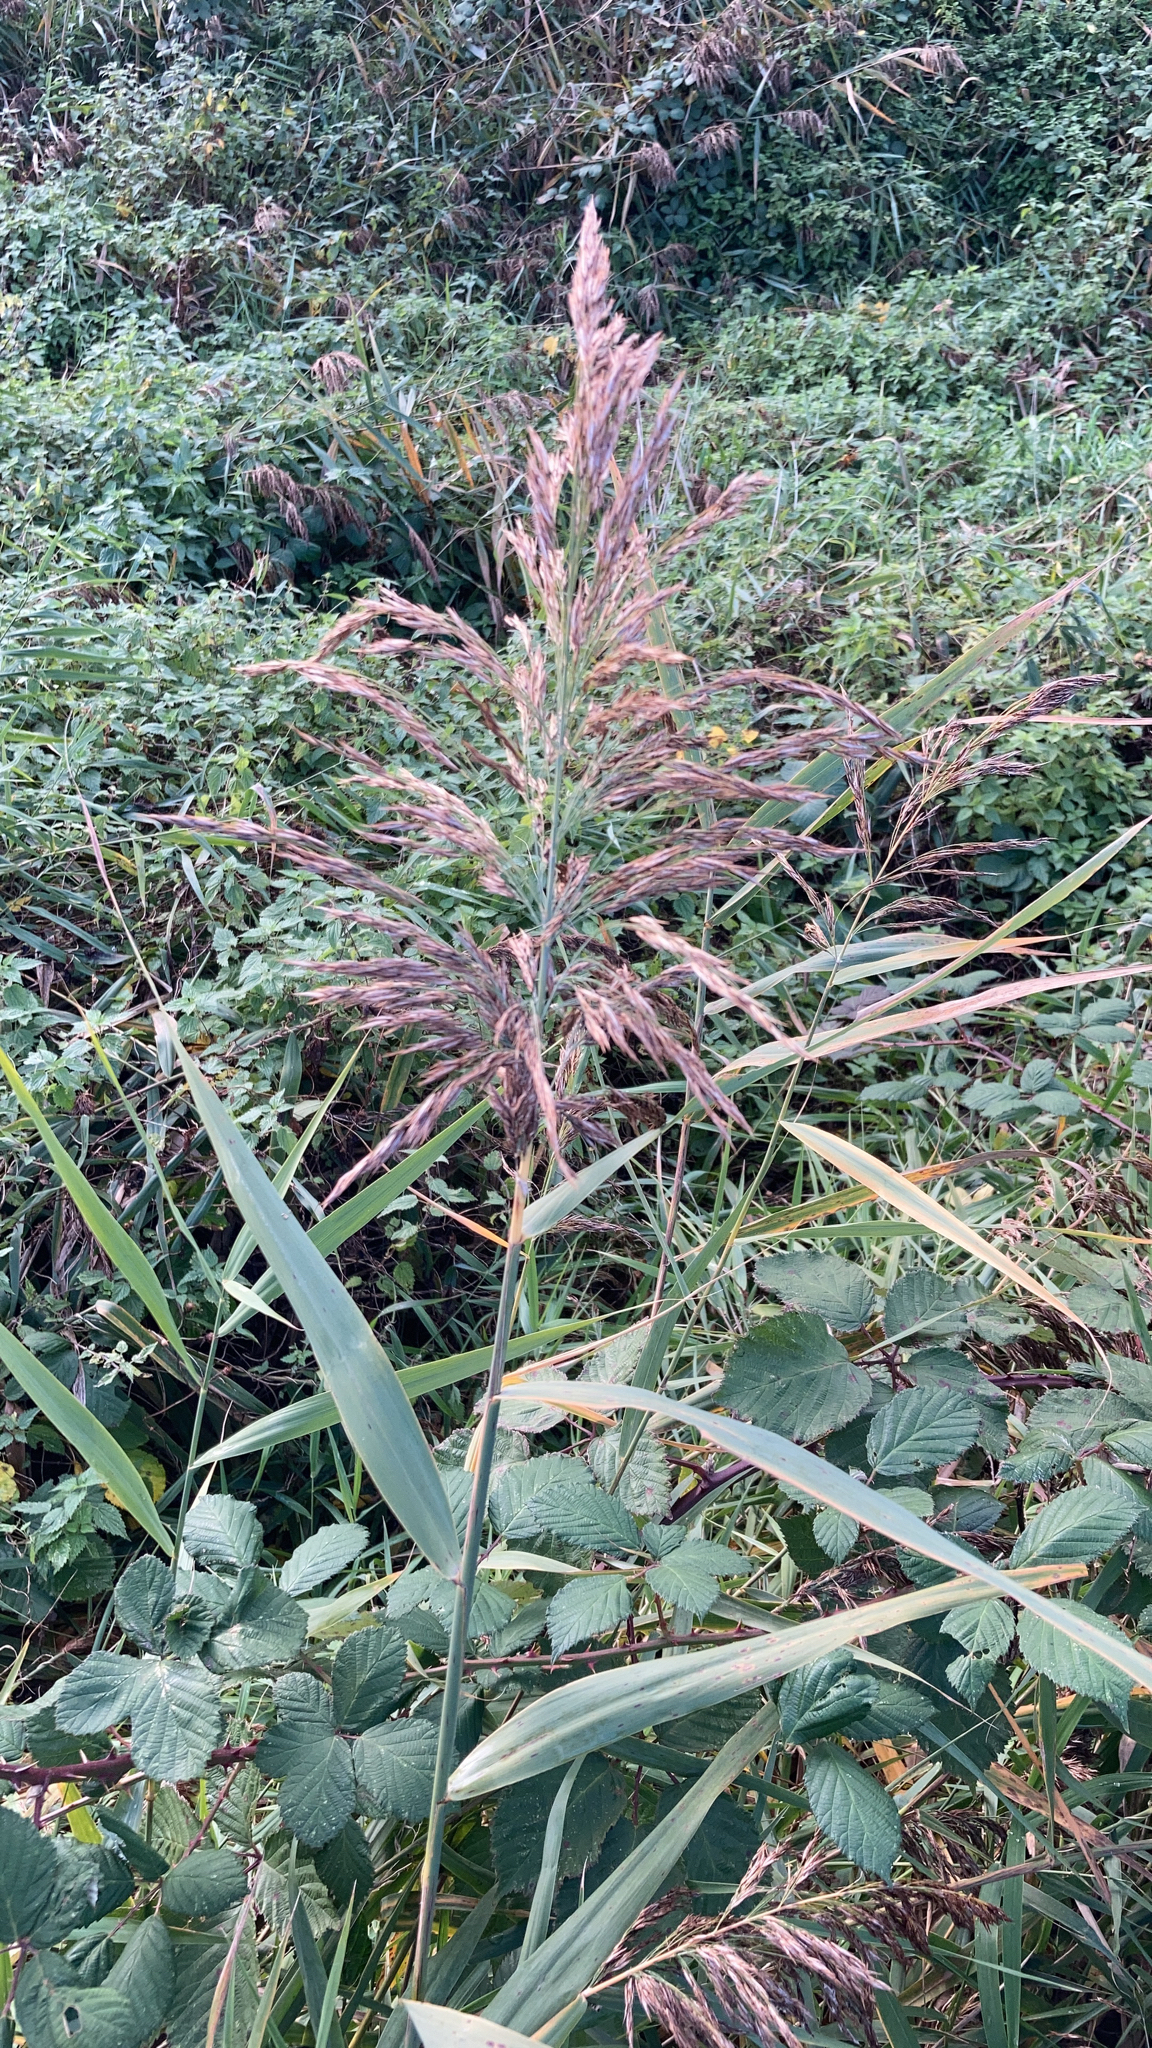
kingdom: Plantae
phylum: Tracheophyta
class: Liliopsida
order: Poales
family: Poaceae
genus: Phragmites
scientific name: Phragmites australis
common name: Common reed
